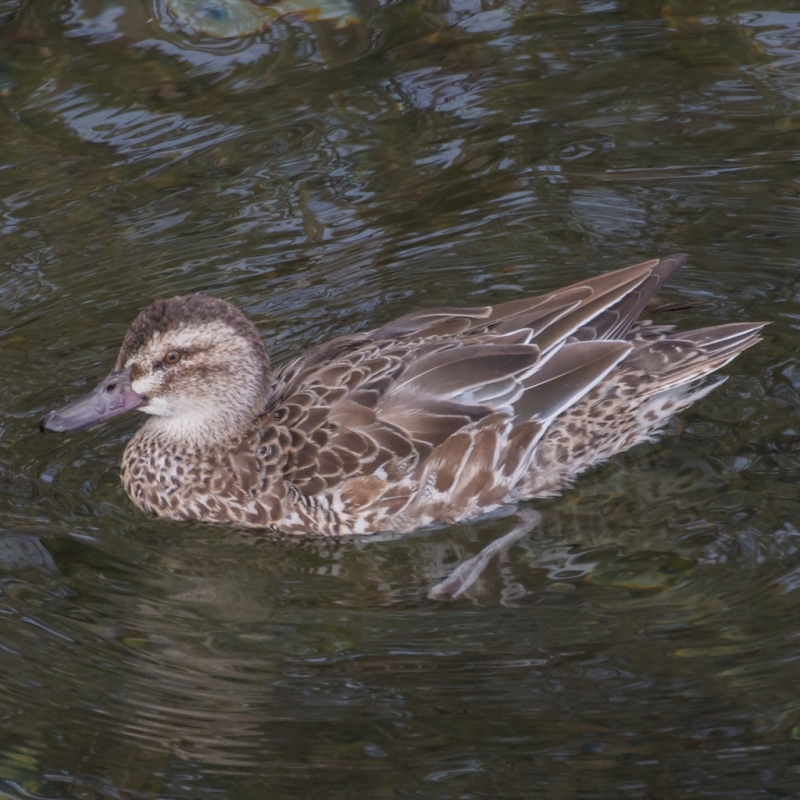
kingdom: Animalia
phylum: Chordata
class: Aves
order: Anseriformes
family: Anatidae
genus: Spatula
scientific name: Spatula querquedula
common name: Garganey
